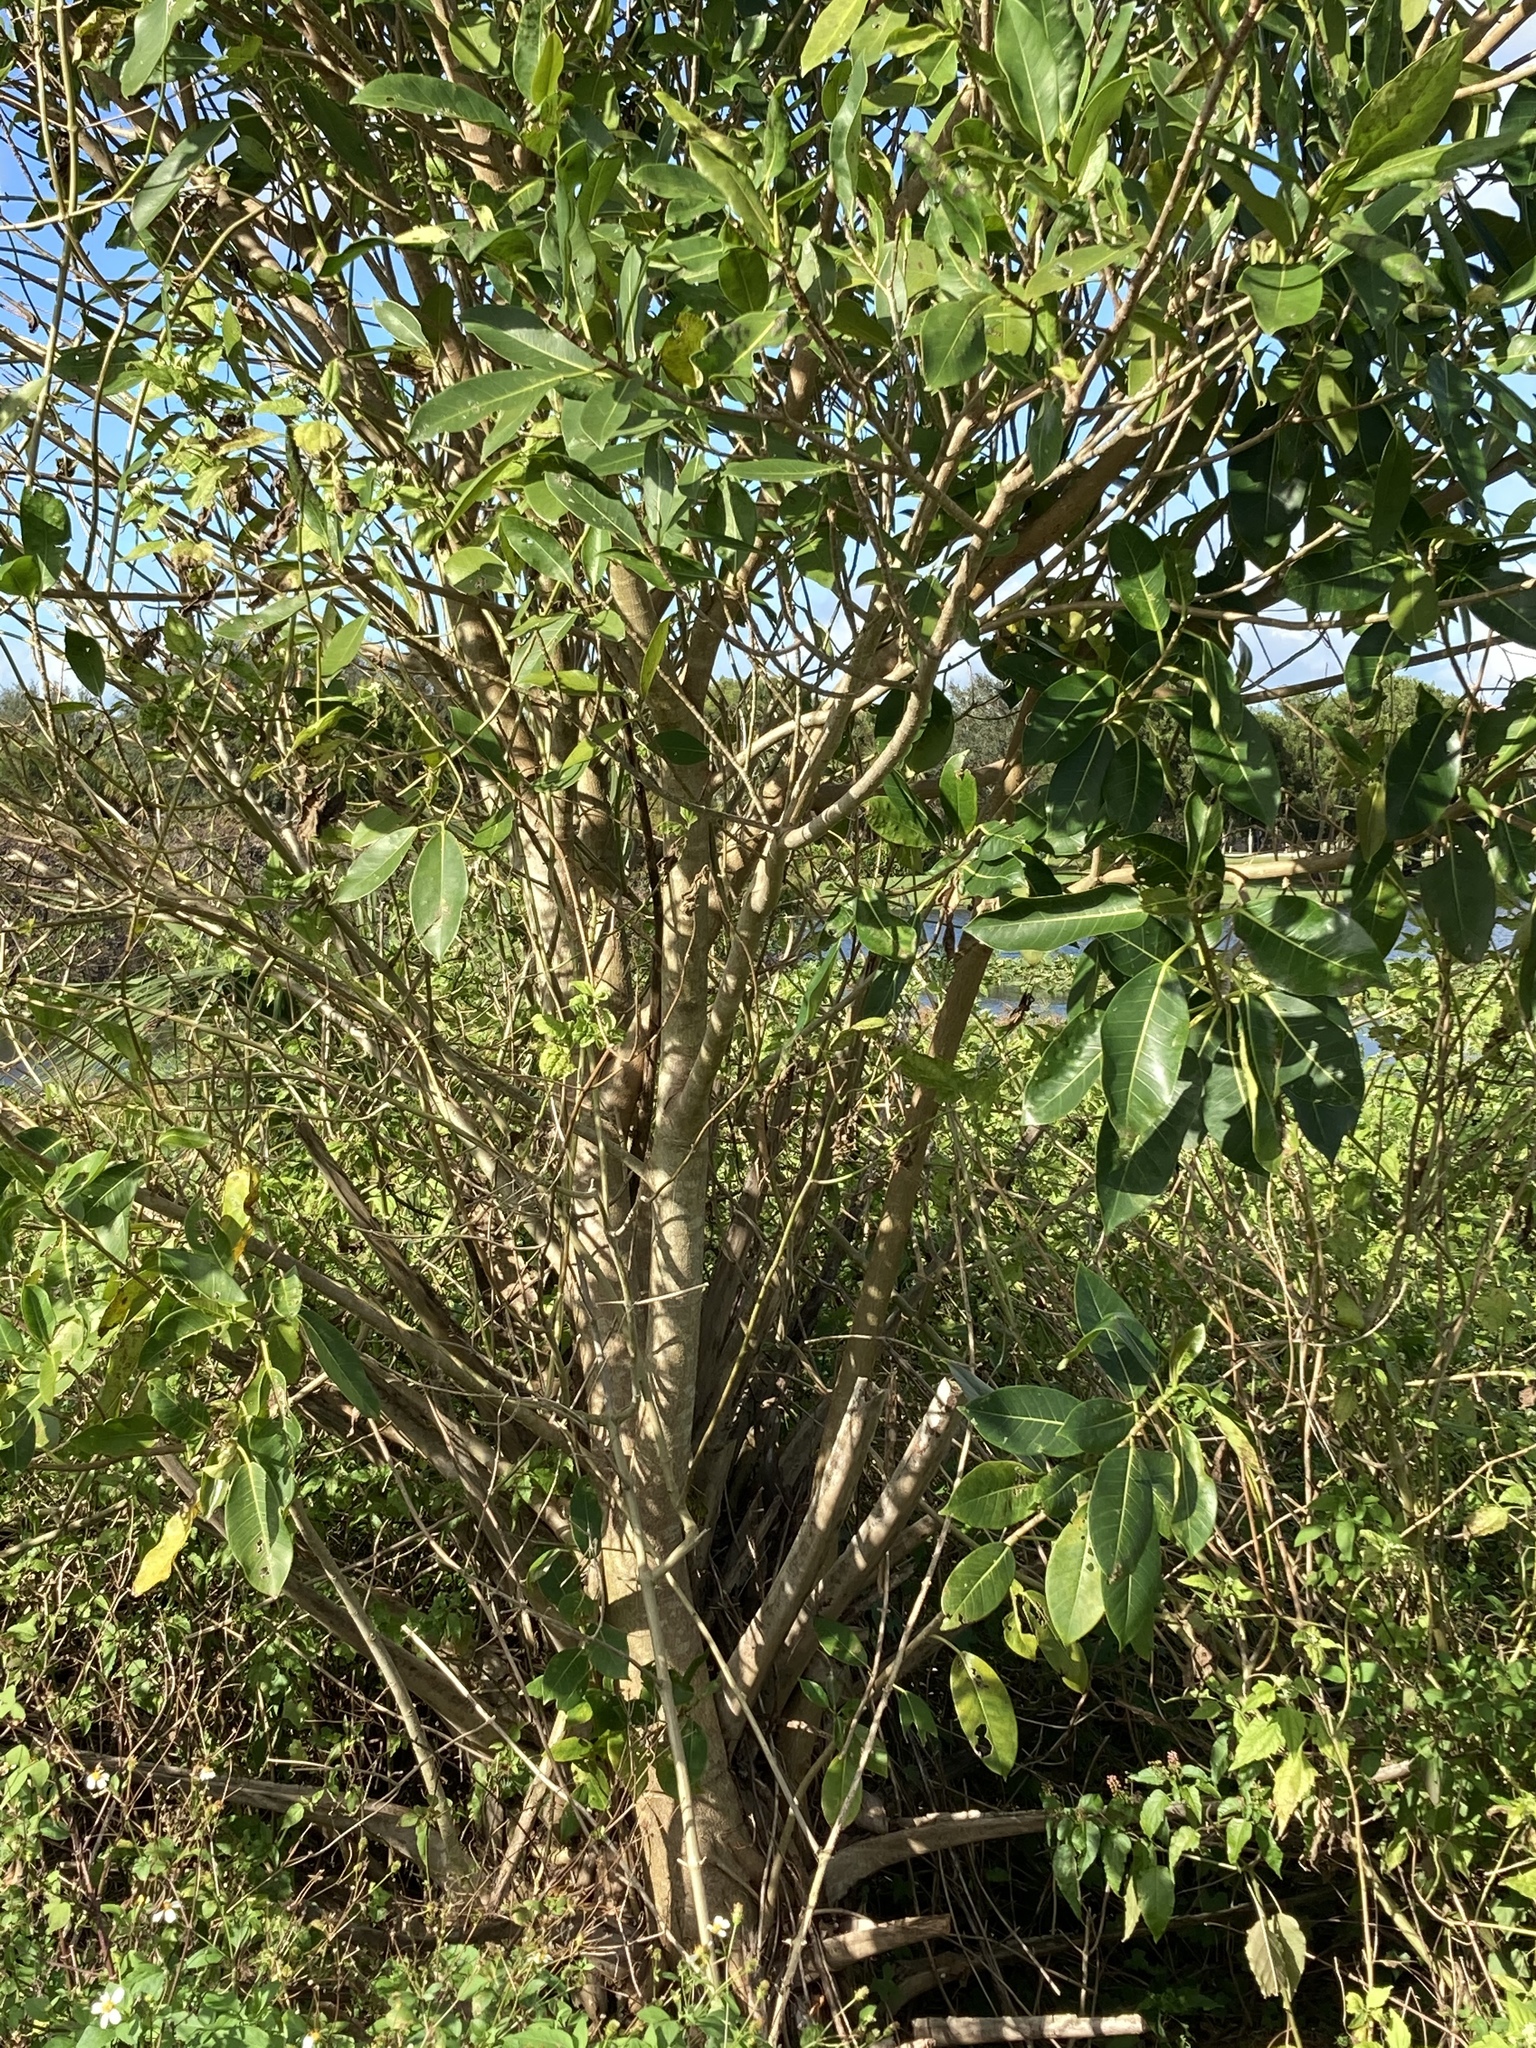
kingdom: Plantae
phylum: Tracheophyta
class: Magnoliopsida
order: Rosales
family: Moraceae
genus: Ficus
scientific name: Ficus aurea
